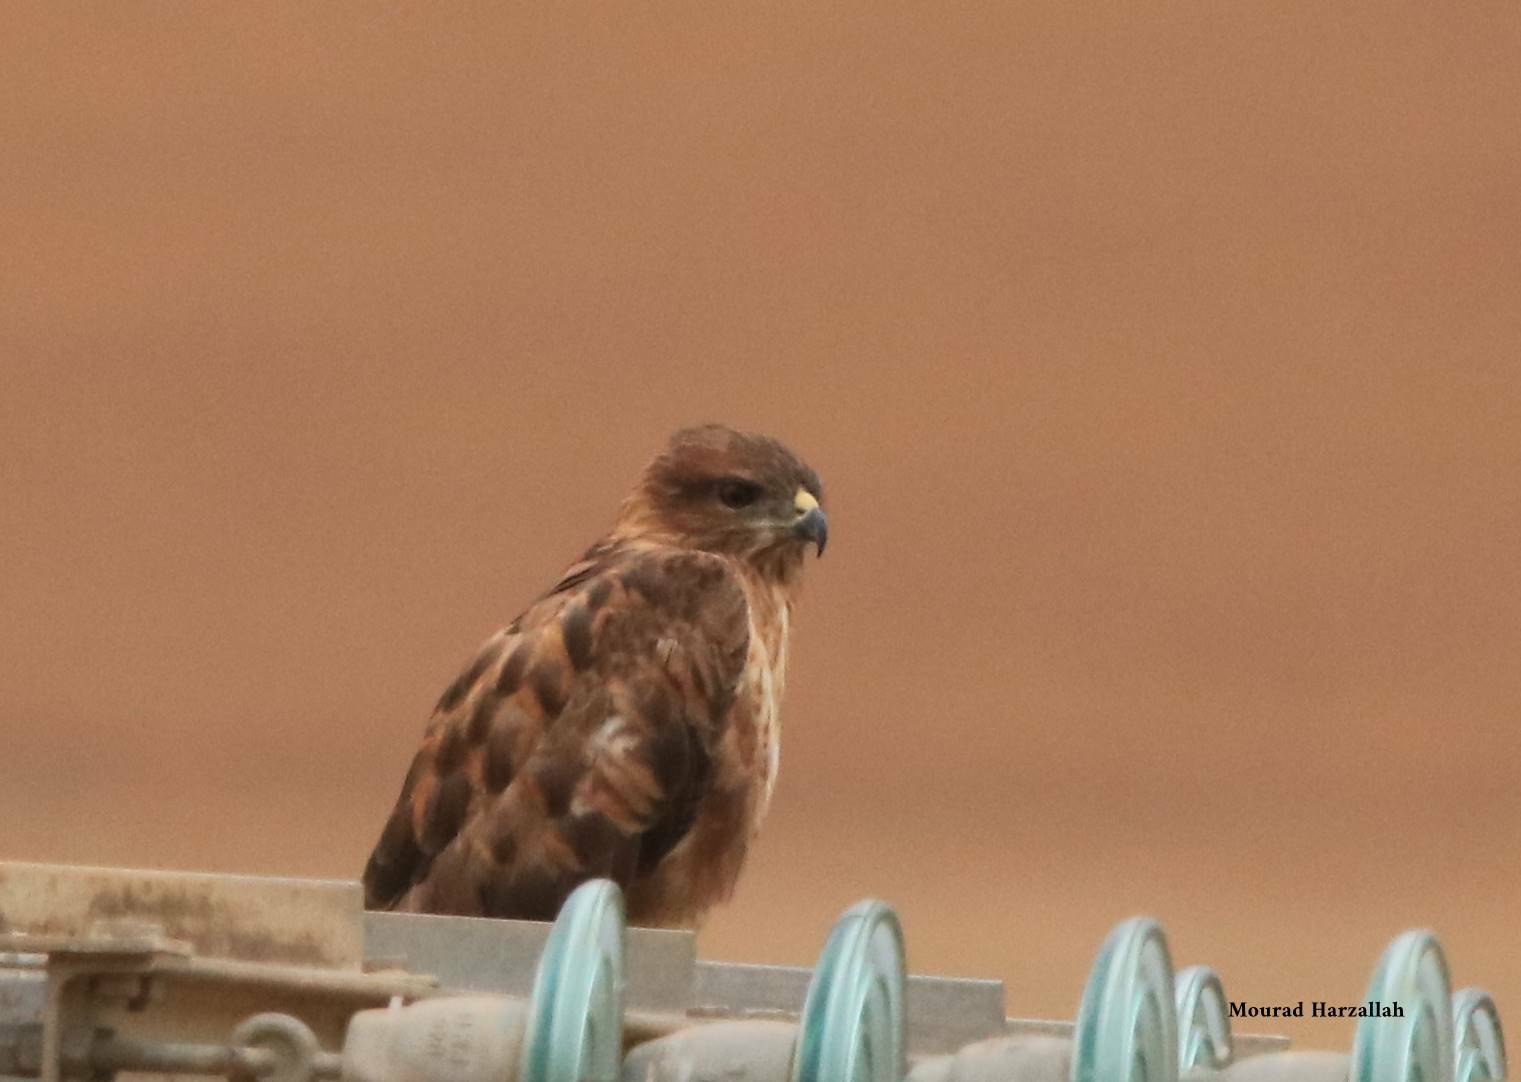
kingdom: Animalia
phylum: Chordata
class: Aves
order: Accipitriformes
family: Accipitridae
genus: Buteo
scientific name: Buteo rufinus
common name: Long-legged buzzard
